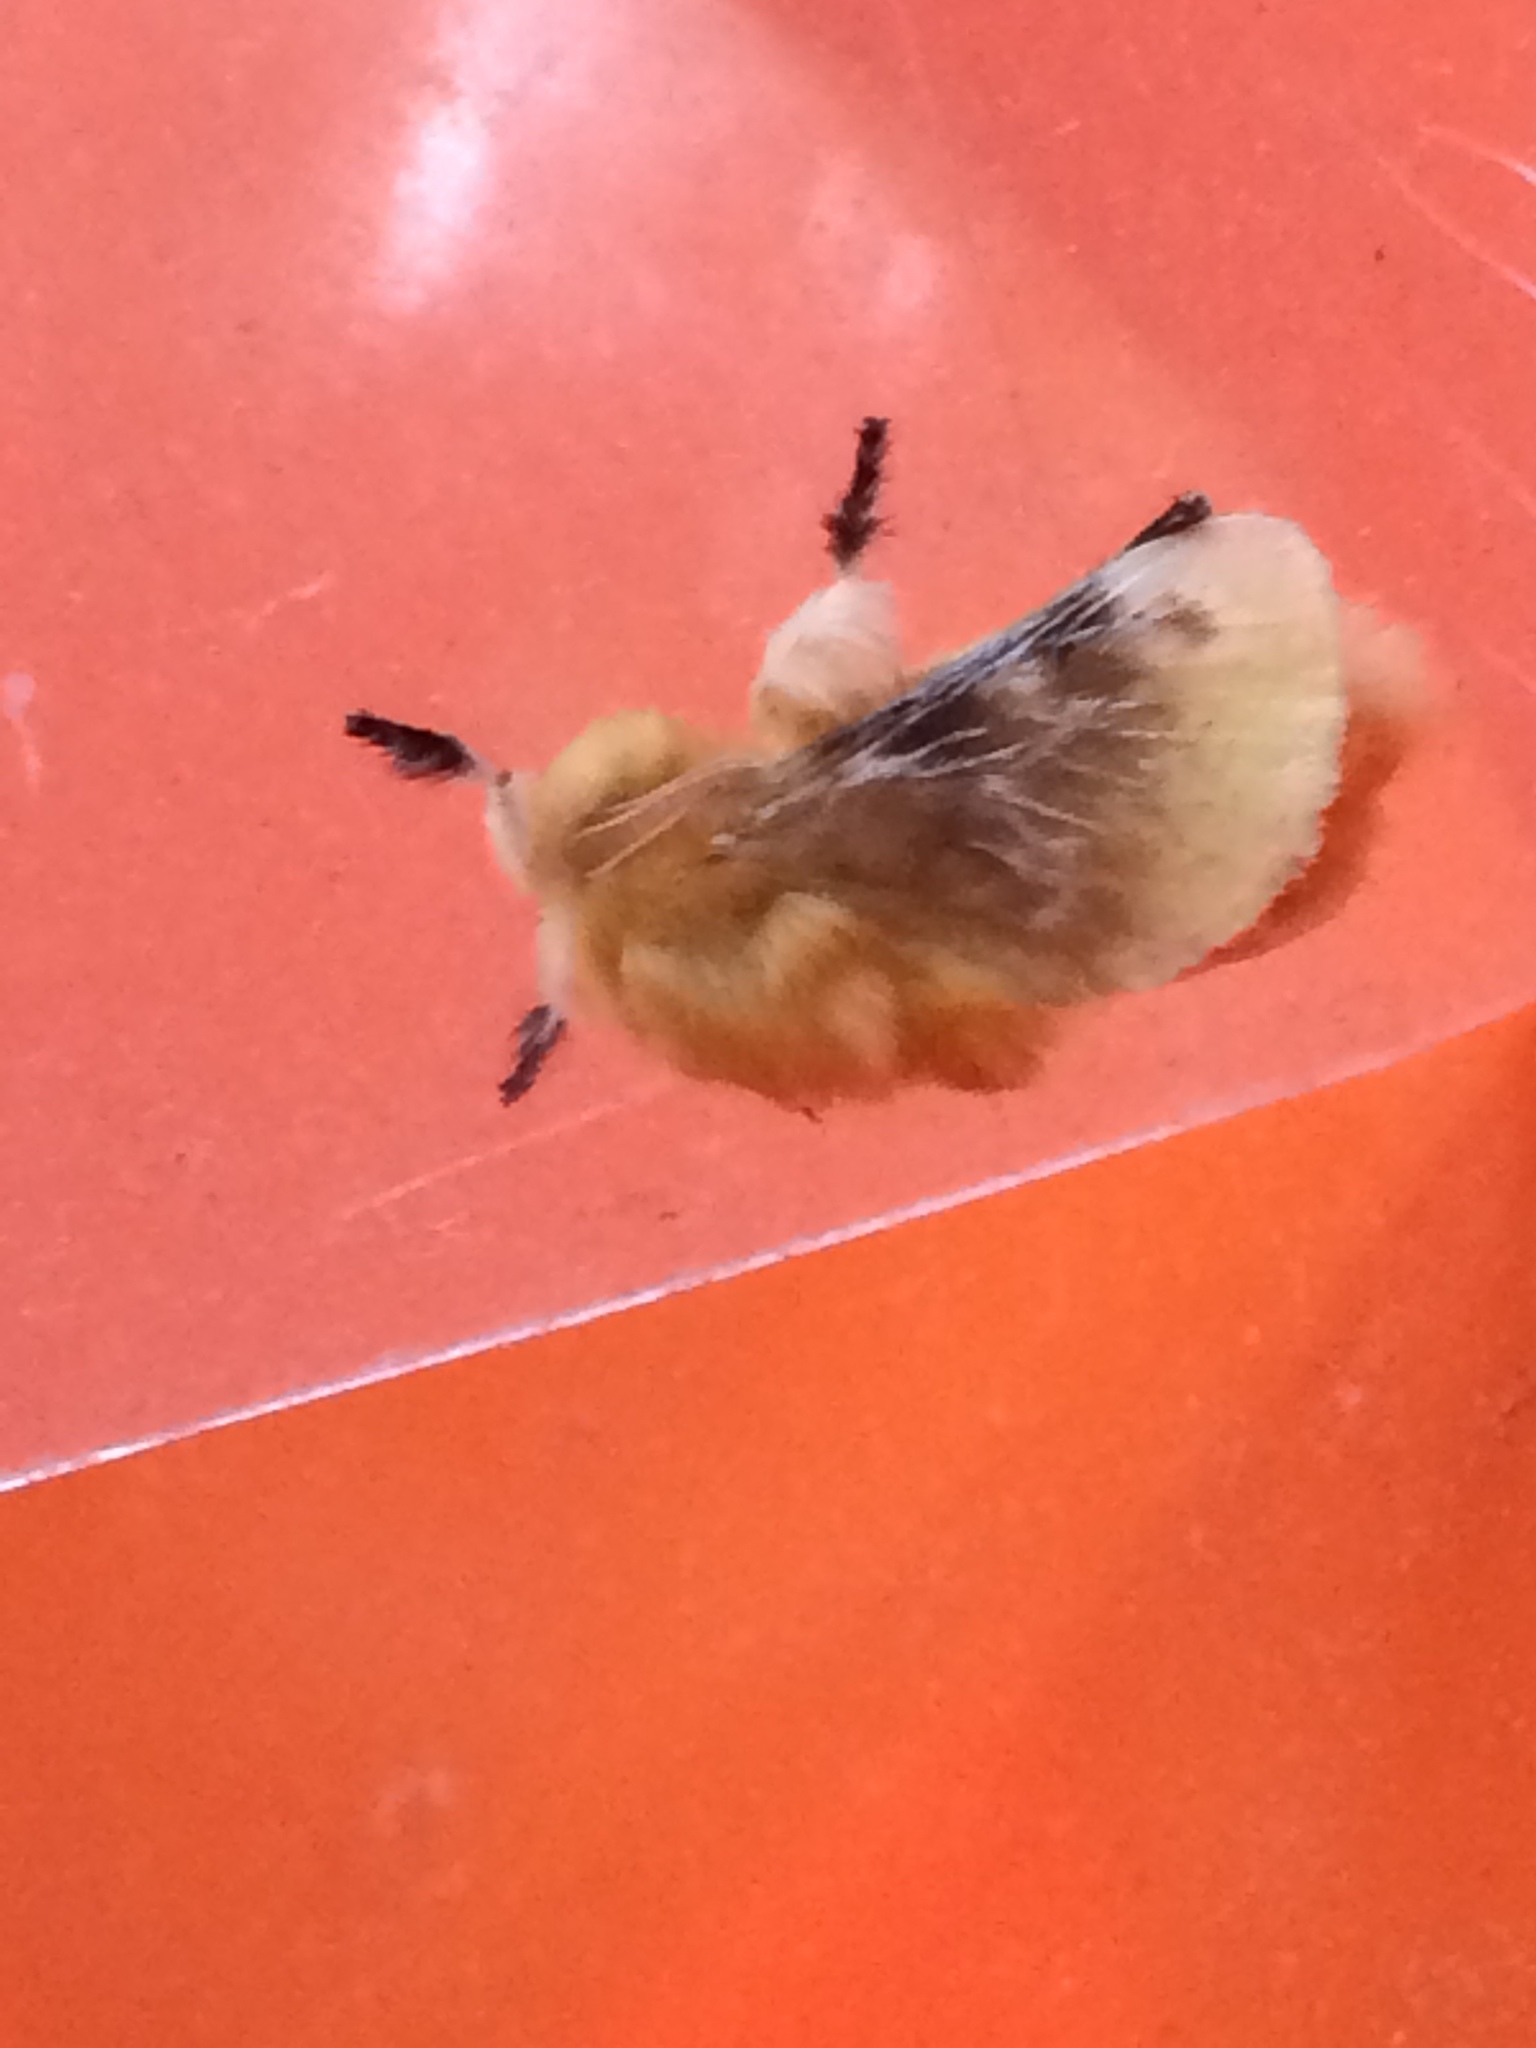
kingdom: Animalia
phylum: Arthropoda
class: Insecta
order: Lepidoptera
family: Megalopygidae
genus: Megalopyge
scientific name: Megalopyge opercularis
